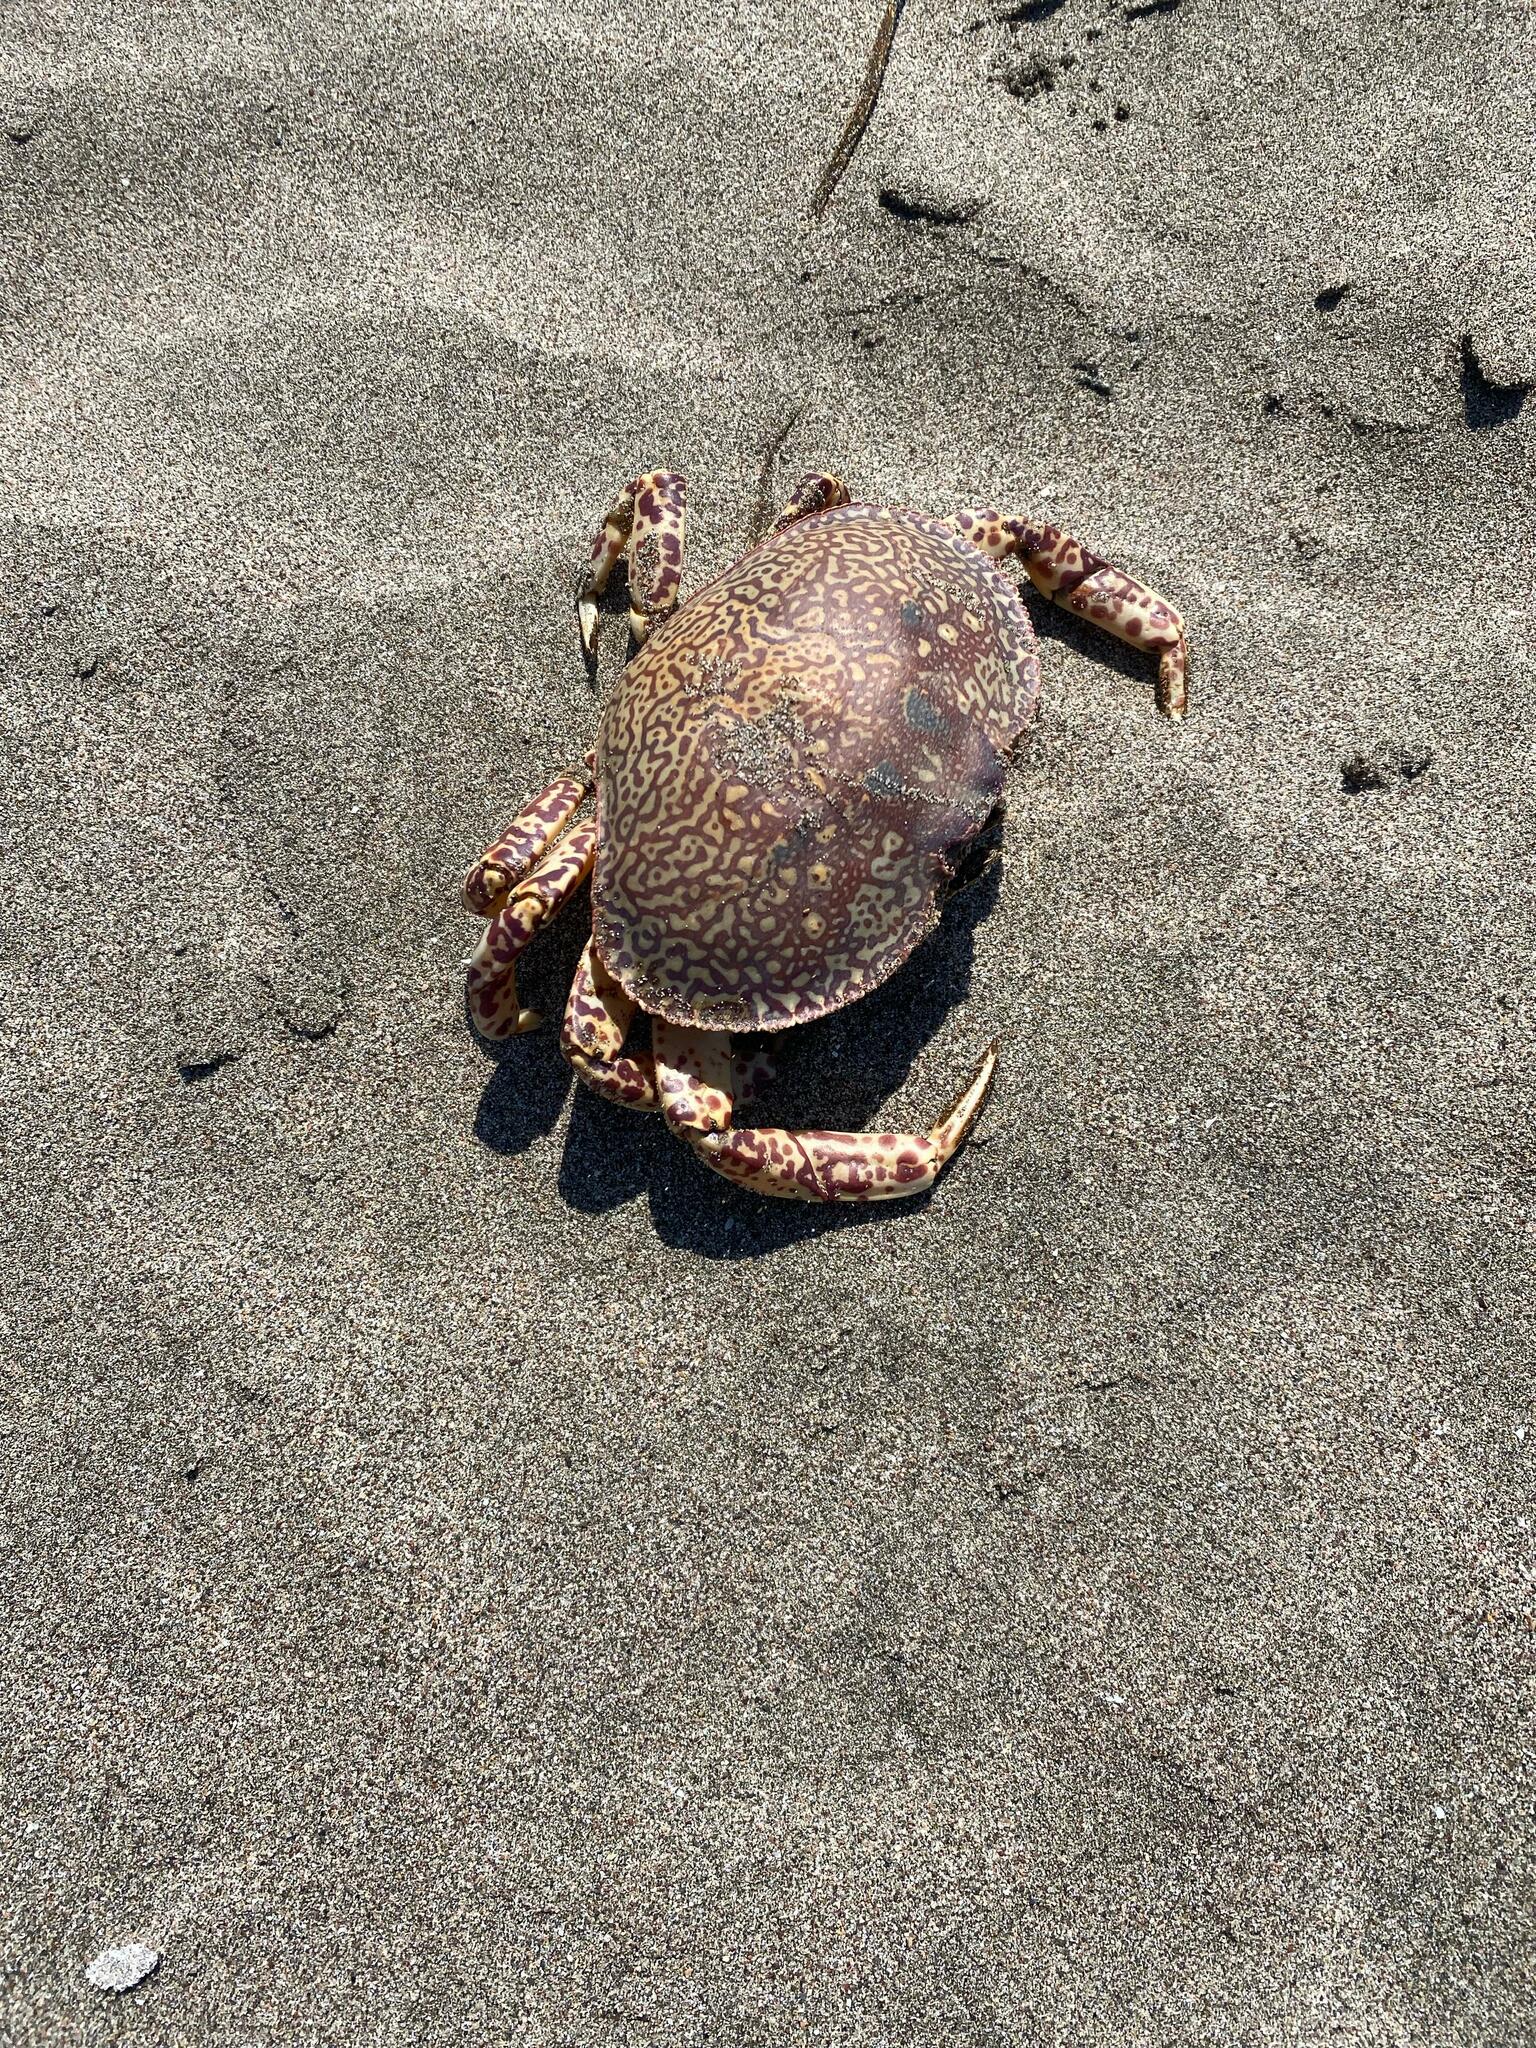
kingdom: Animalia
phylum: Arthropoda
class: Malacostraca
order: Decapoda
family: Aethridae
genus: Hepatus
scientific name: Hepatus chiliensis
